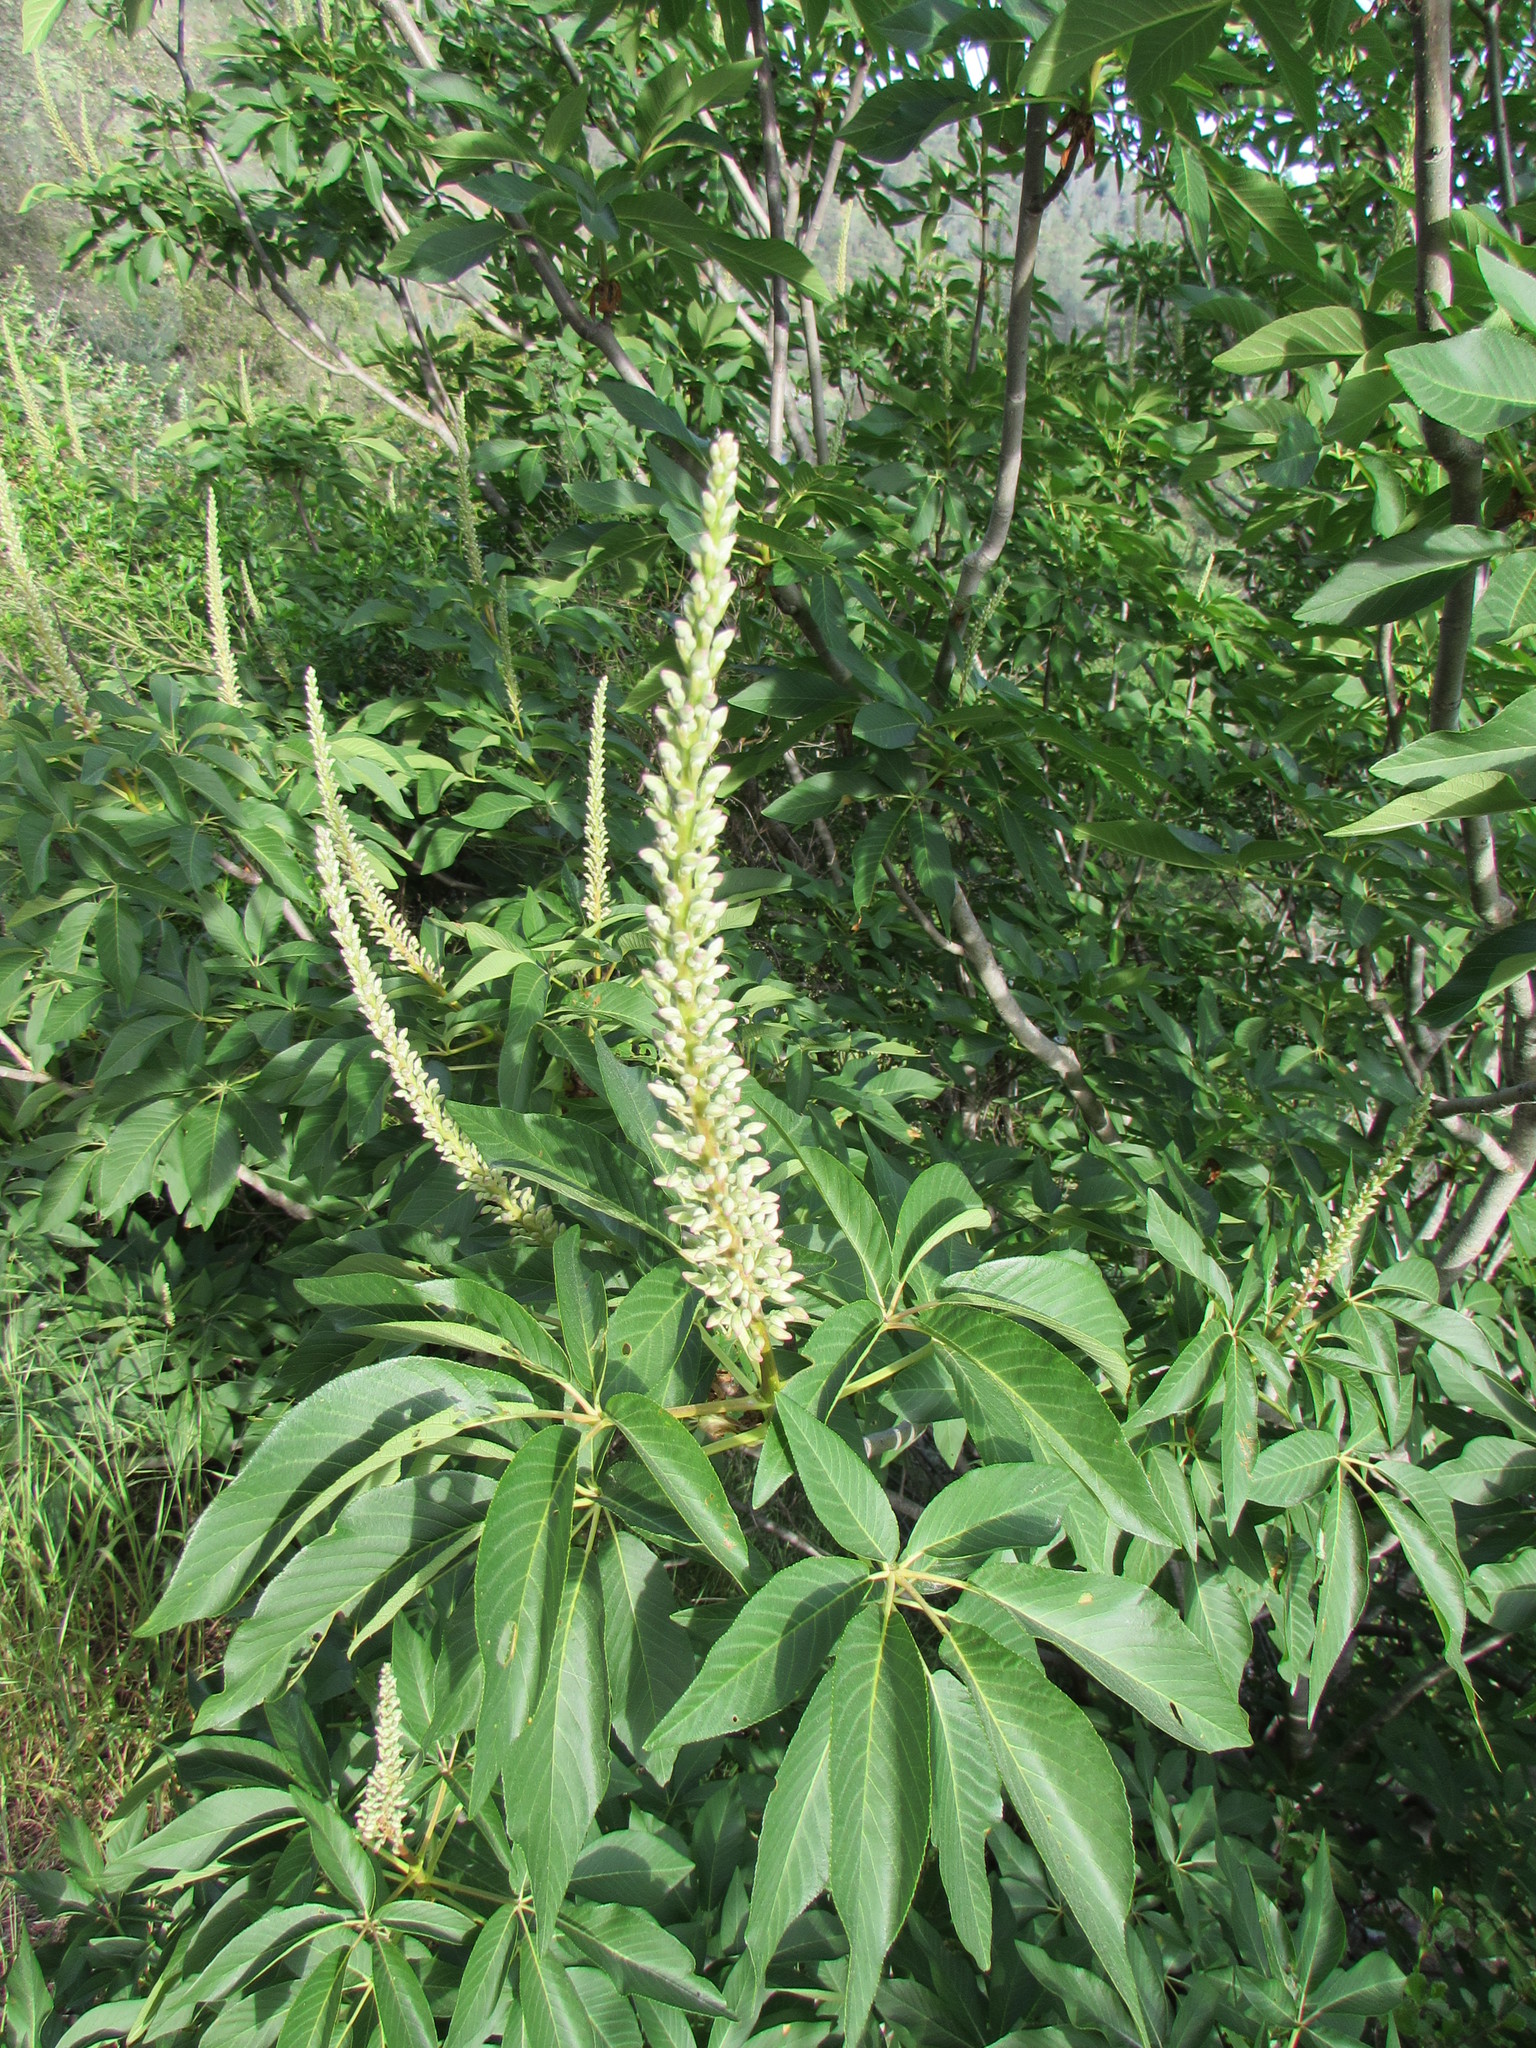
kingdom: Plantae
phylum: Tracheophyta
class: Magnoliopsida
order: Sapindales
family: Sapindaceae
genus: Aesculus
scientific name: Aesculus californica
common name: California buckeye
